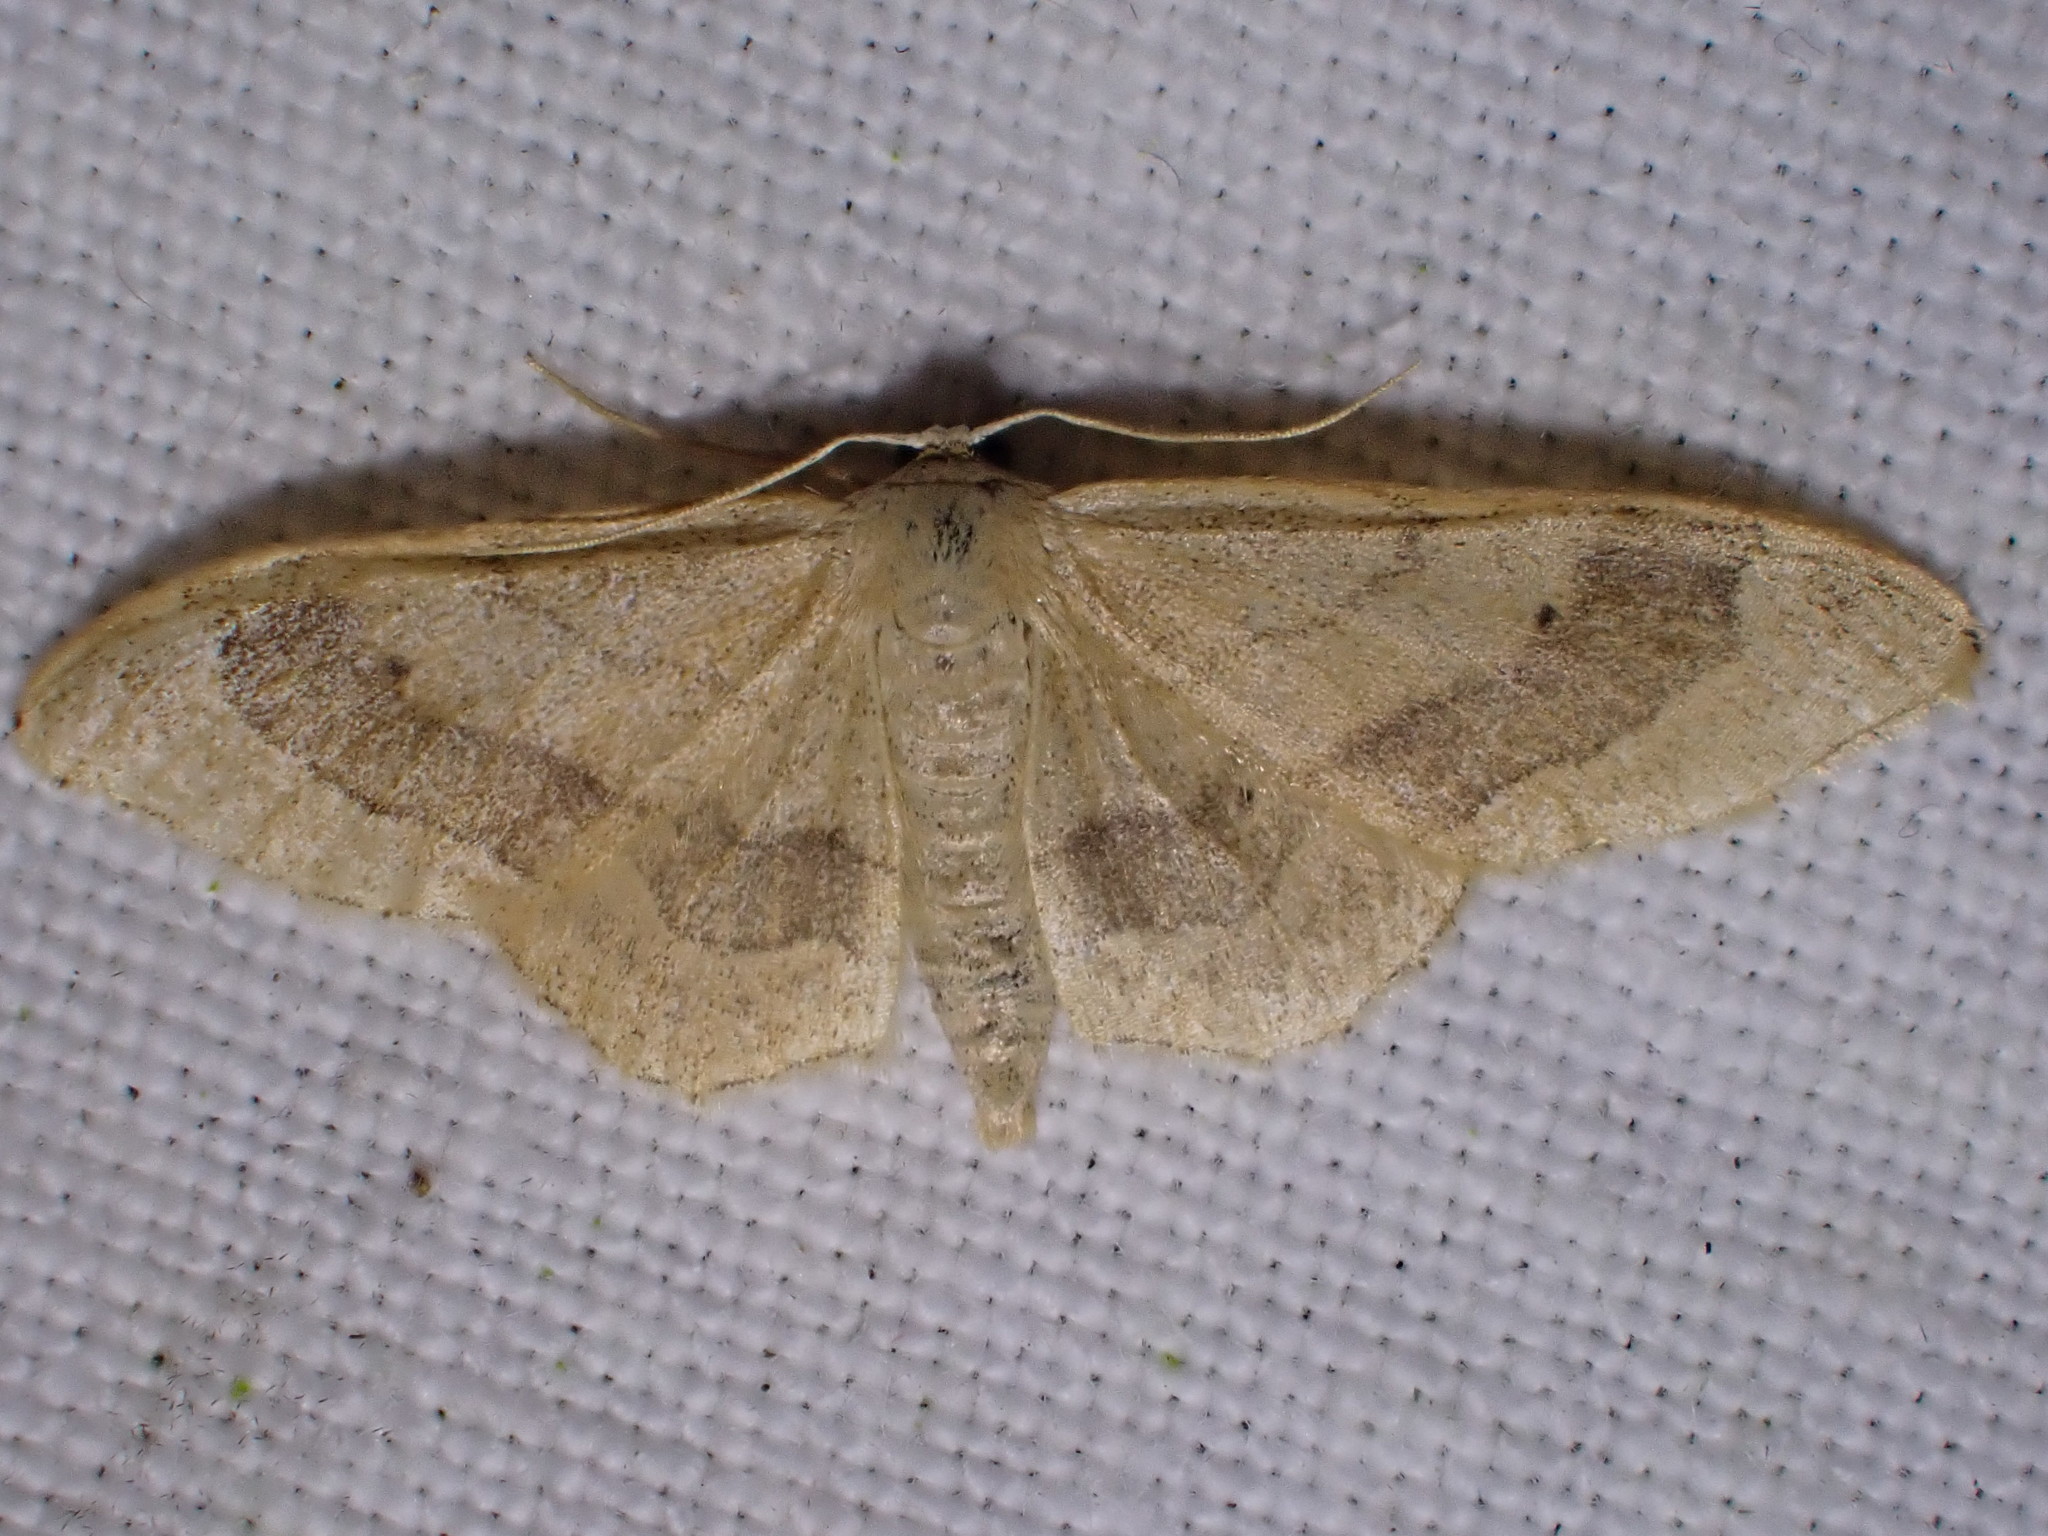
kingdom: Animalia
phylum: Arthropoda
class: Insecta
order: Lepidoptera
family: Geometridae
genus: Idaea
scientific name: Idaea aversata
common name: Riband wave
